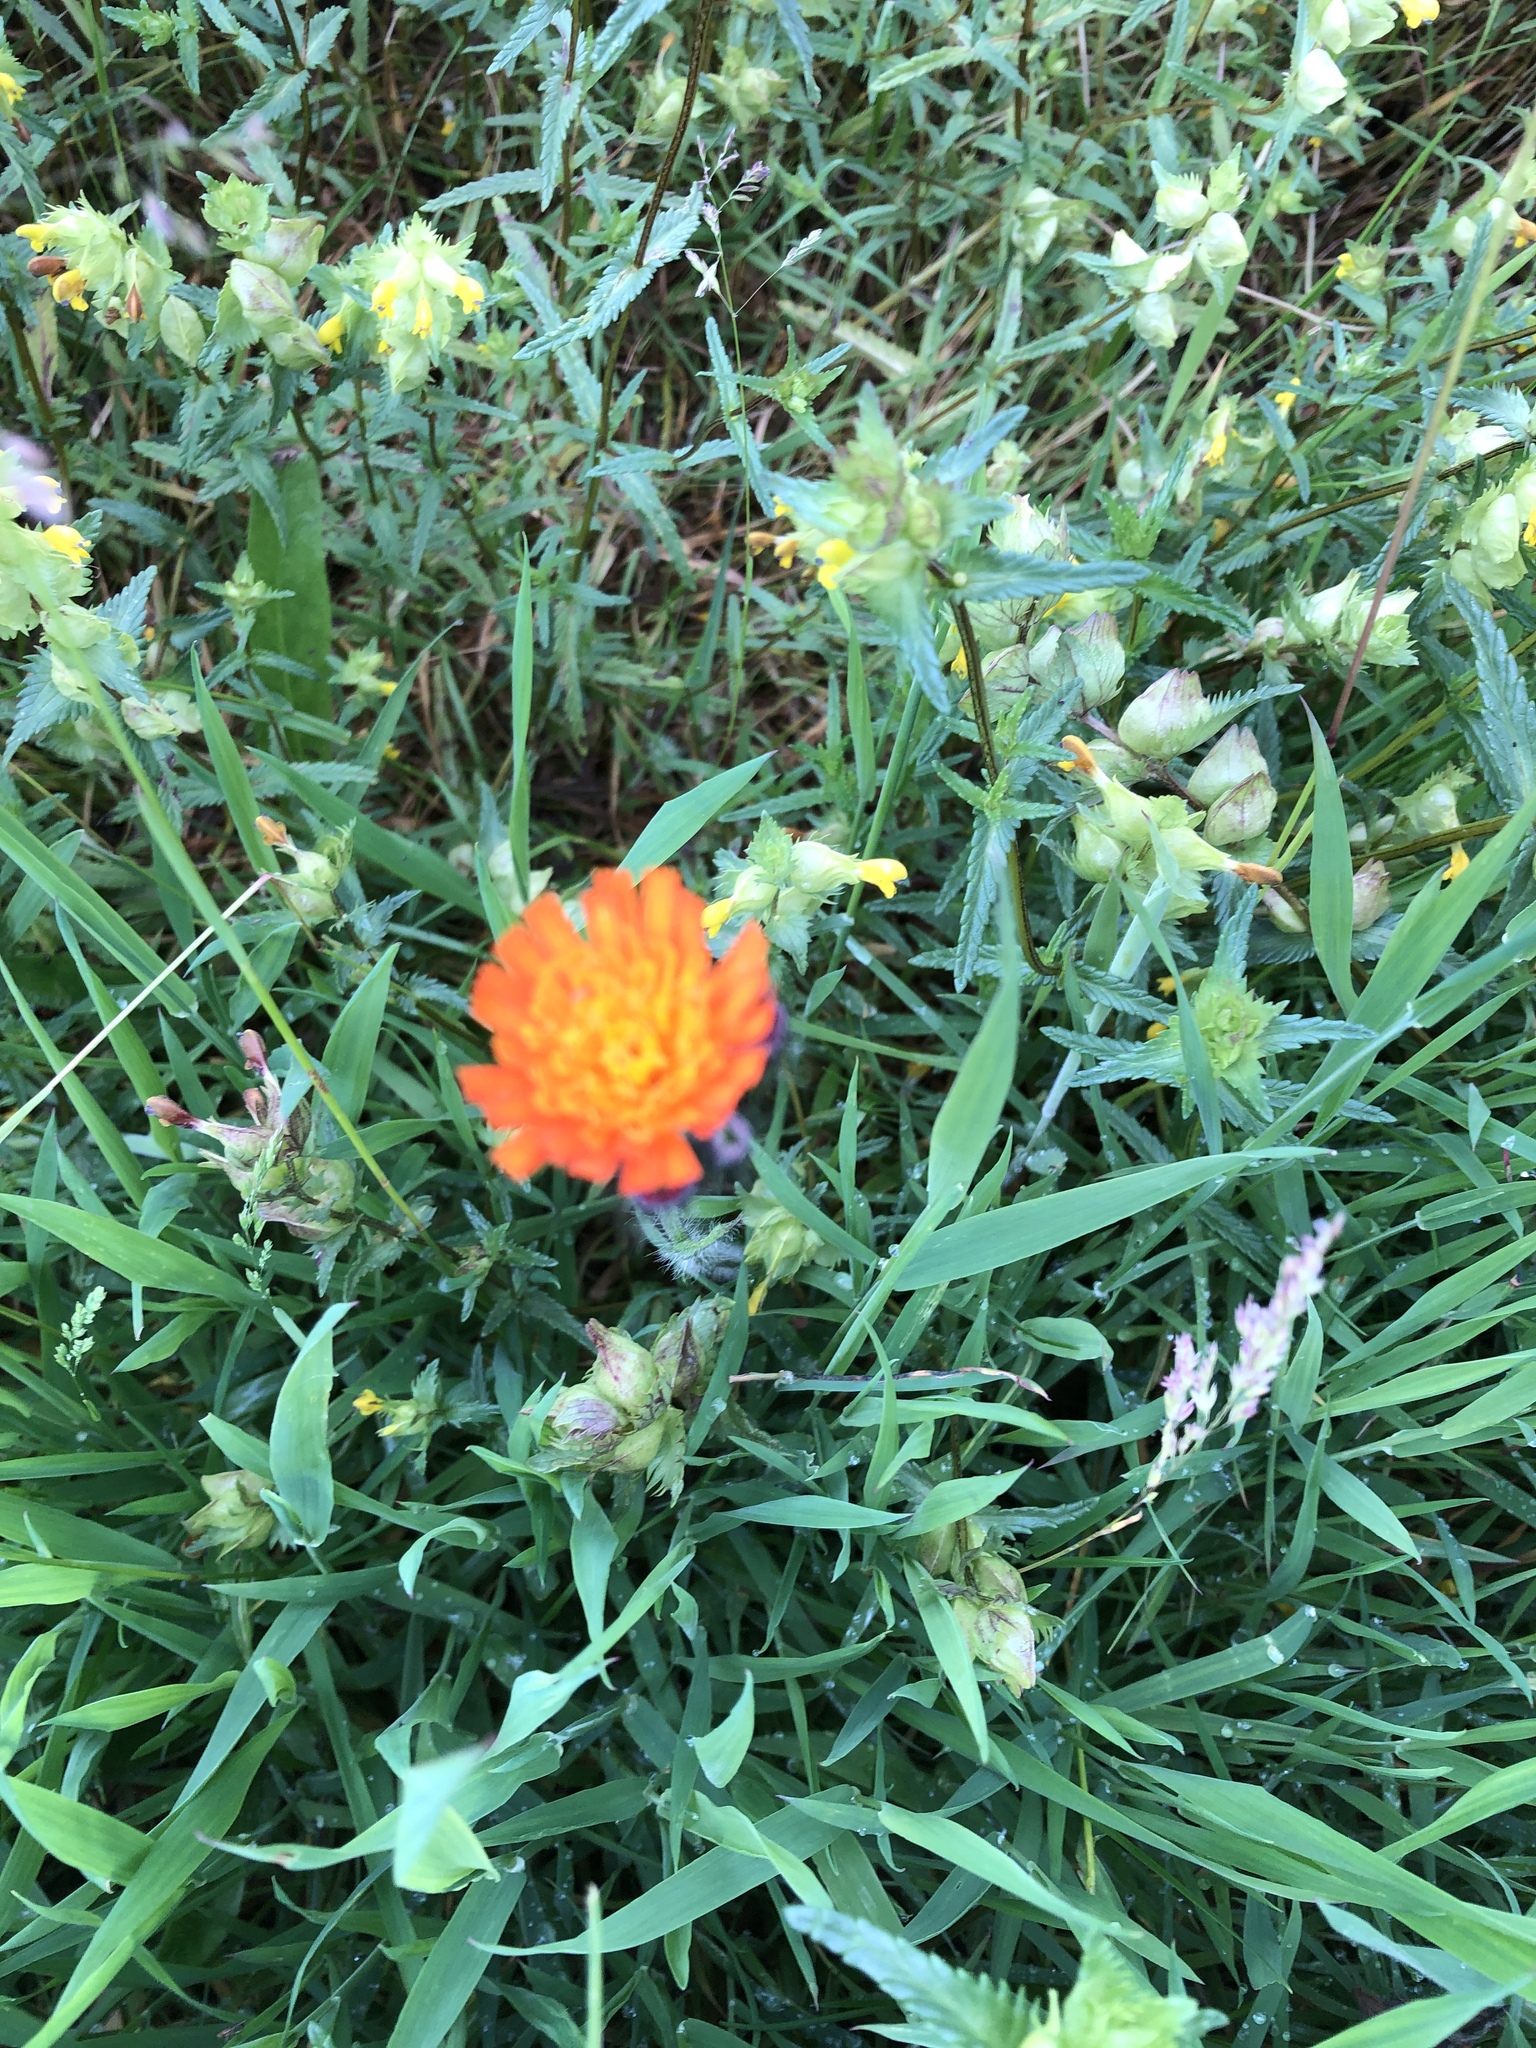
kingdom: Plantae
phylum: Tracheophyta
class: Magnoliopsida
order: Asterales
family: Asteraceae
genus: Pilosella
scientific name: Pilosella aurantiaca
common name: Fox-and-cubs
